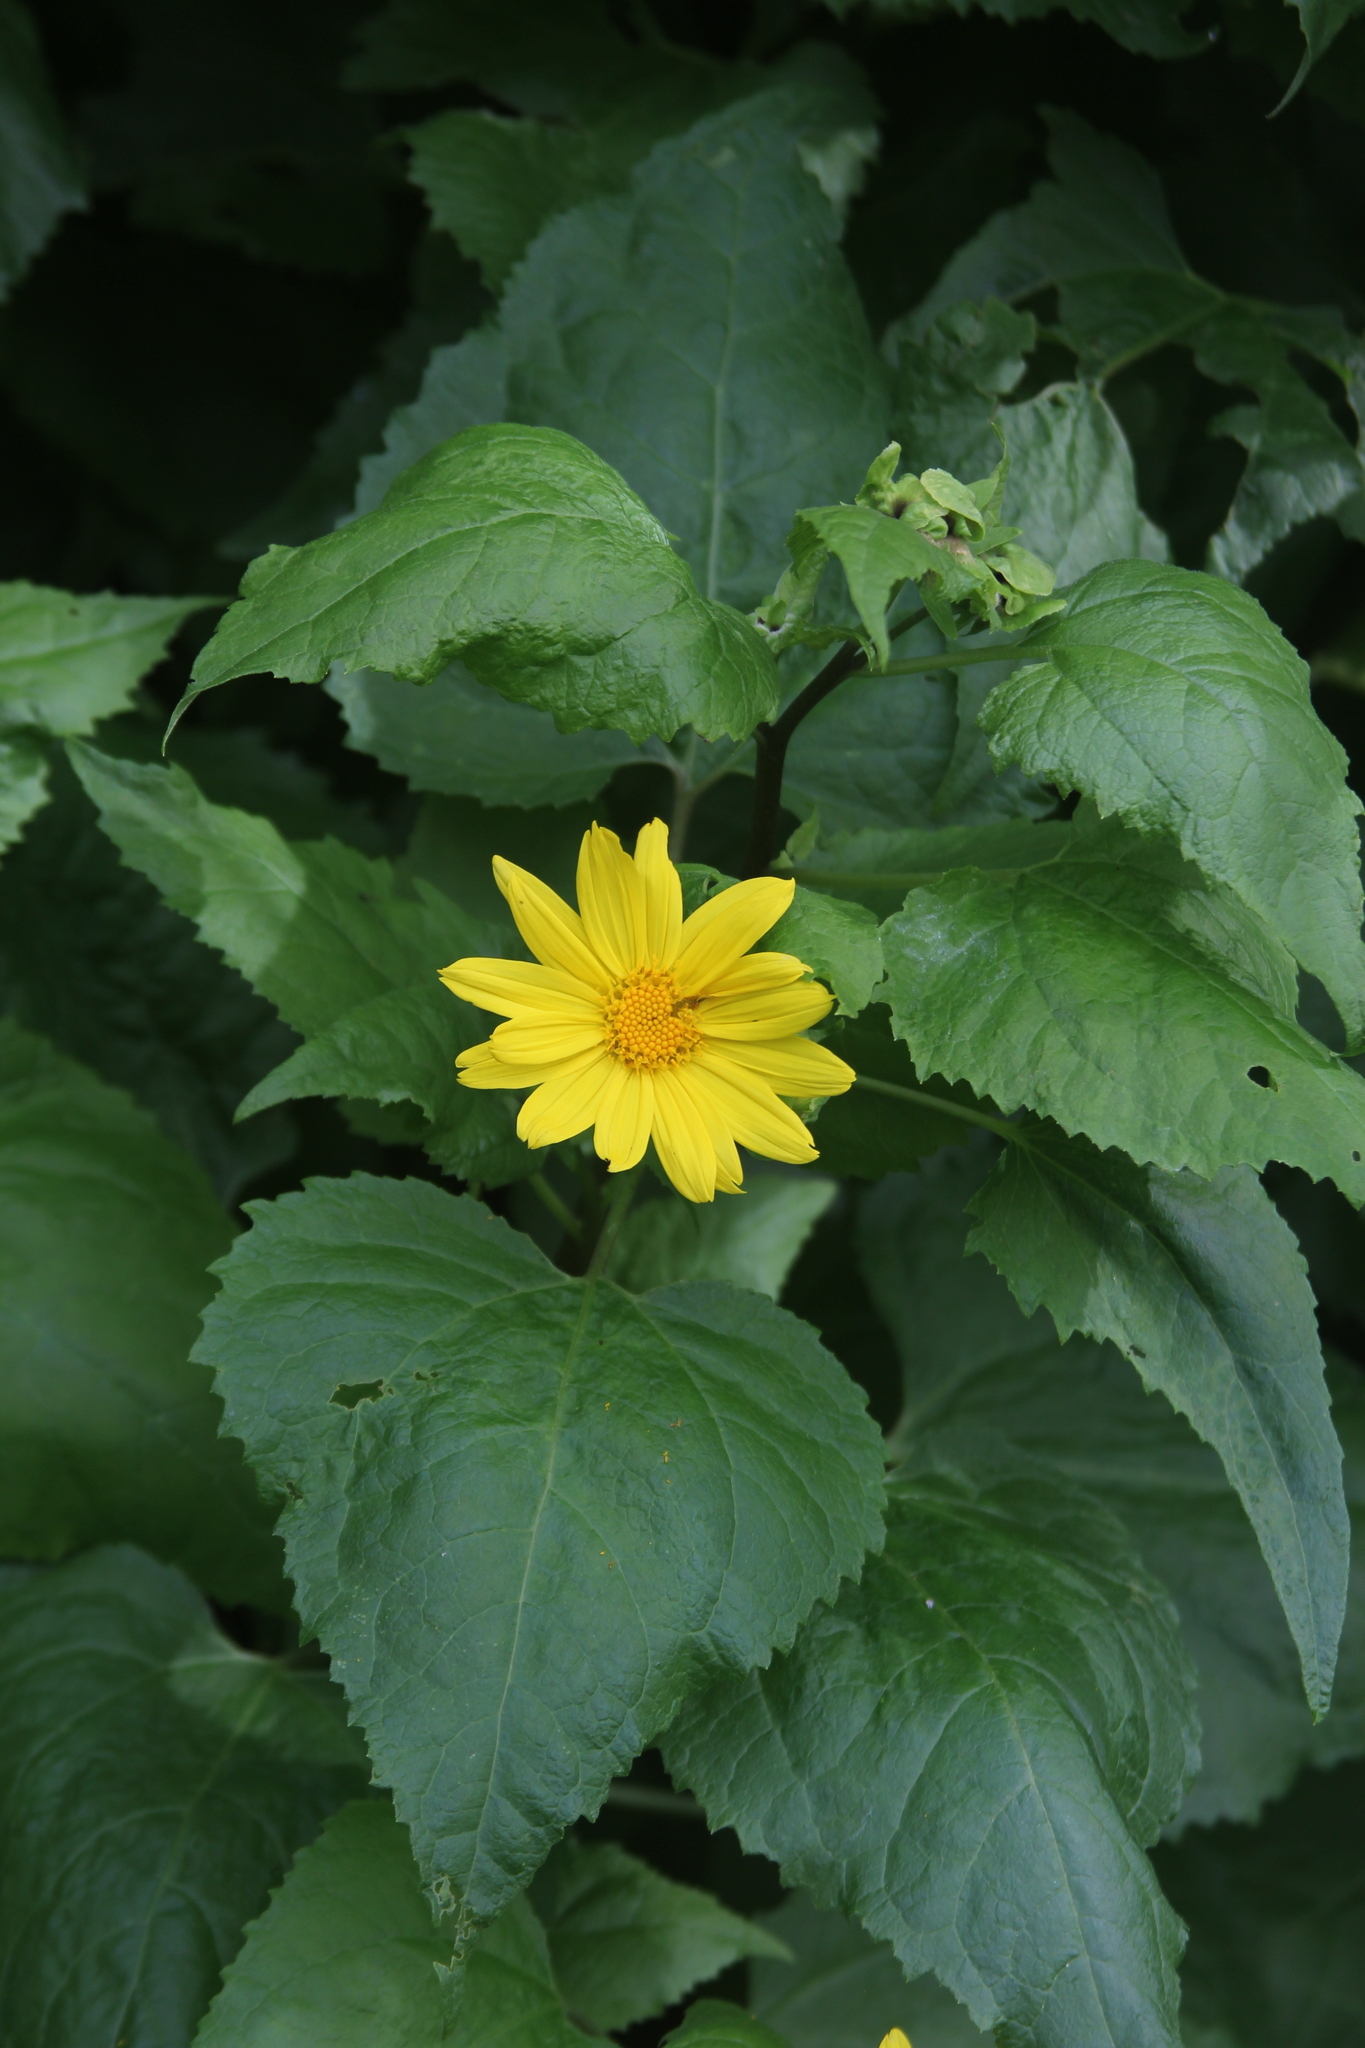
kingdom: Plantae
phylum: Tracheophyta
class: Magnoliopsida
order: Asterales
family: Asteraceae
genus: Venegasia
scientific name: Venegasia carpesioides
